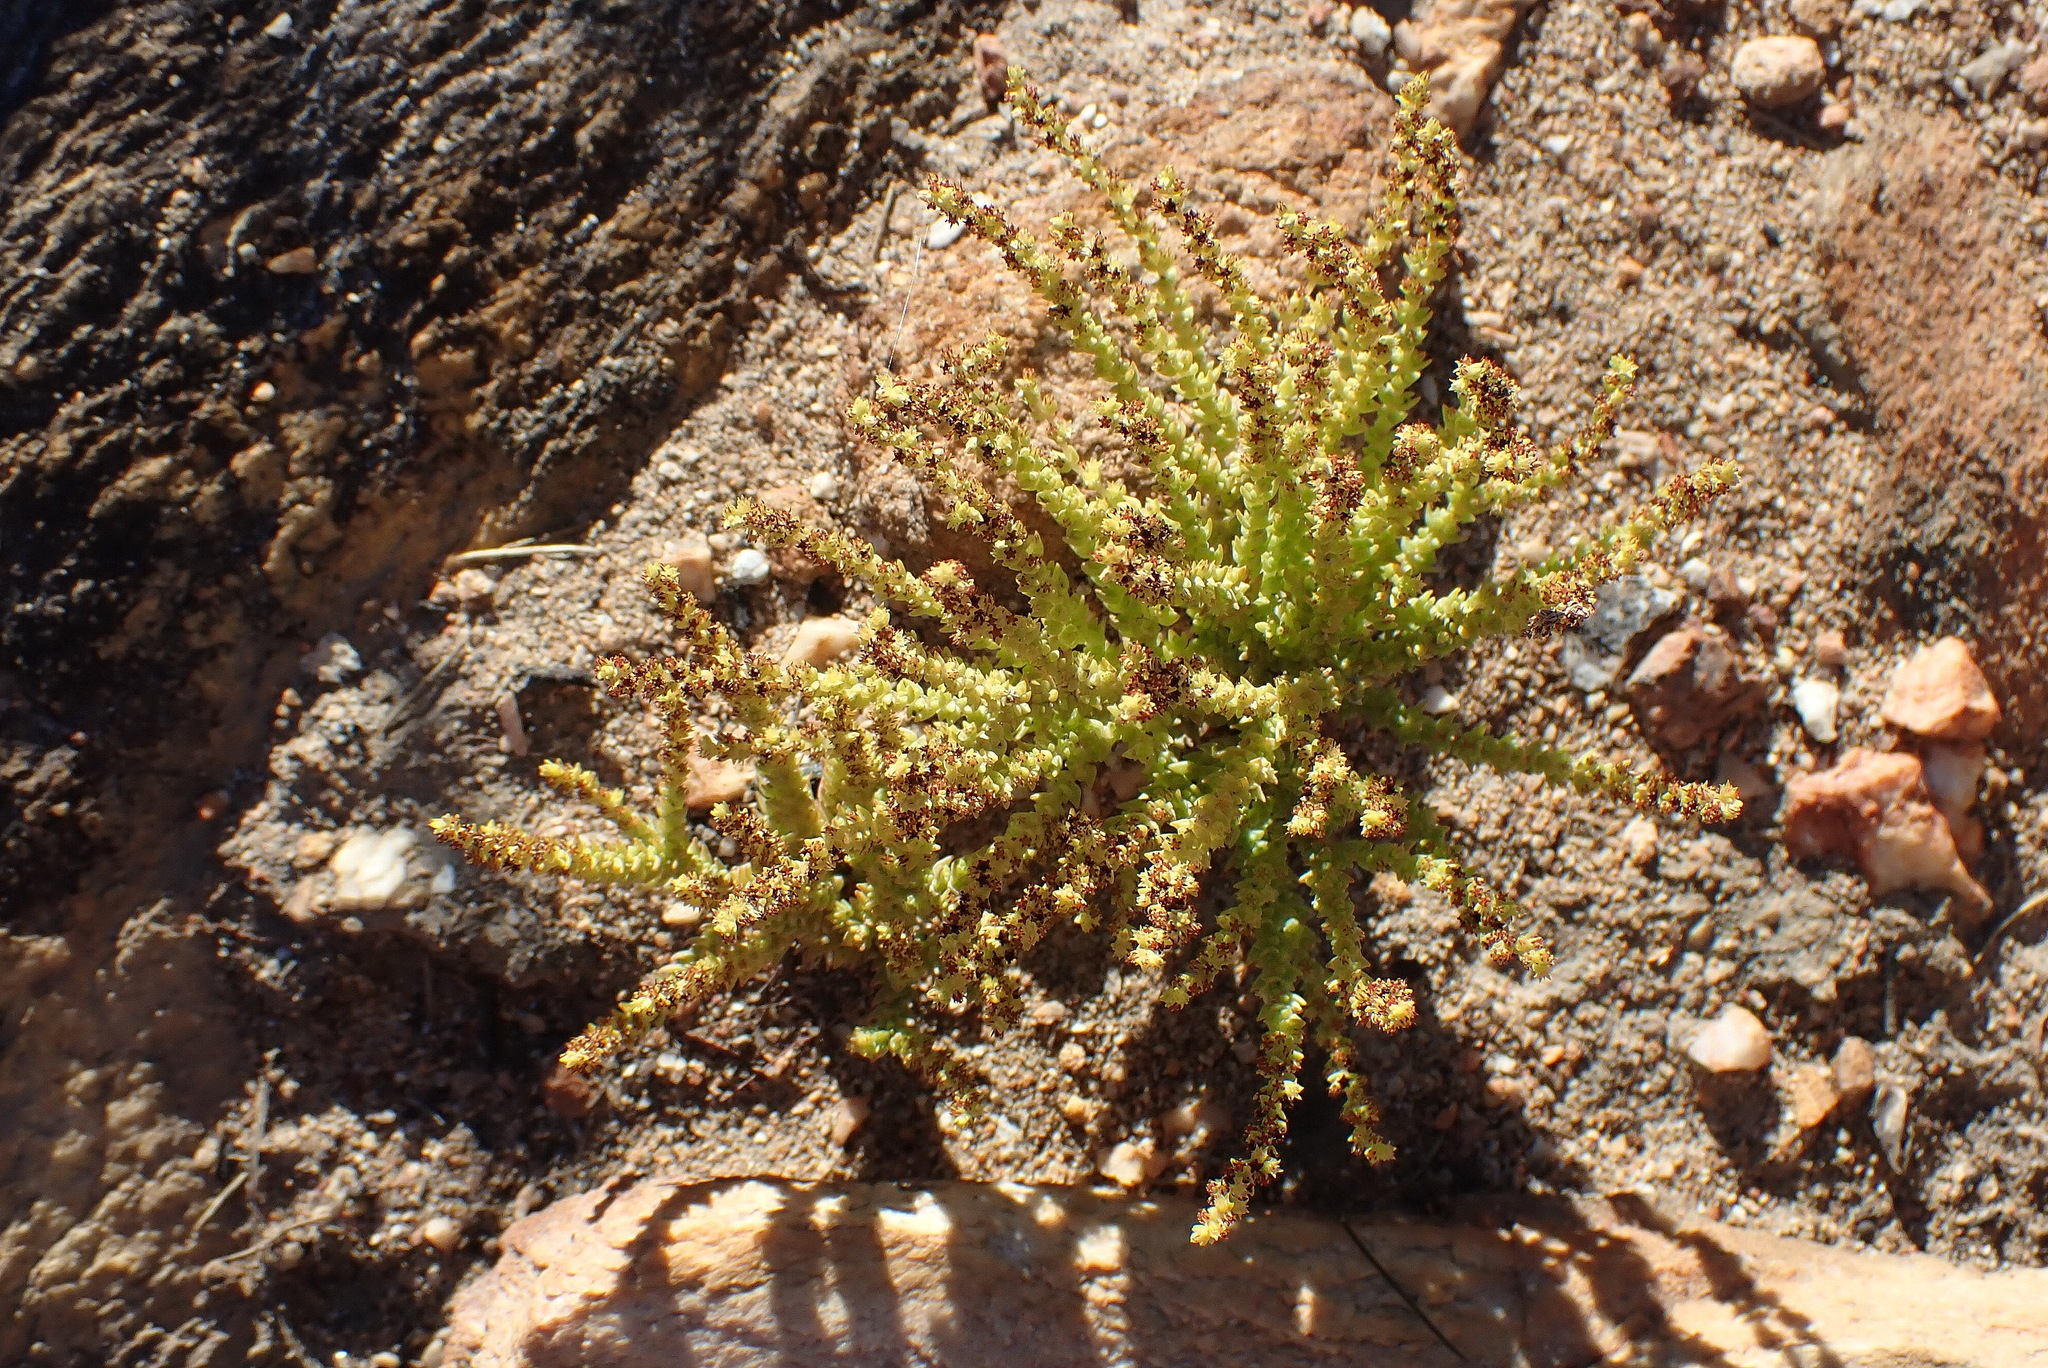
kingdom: Plantae
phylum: Tracheophyta
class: Magnoliopsida
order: Saxifragales
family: Crassulaceae
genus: Crassula
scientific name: Crassula muscosa
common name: Toy-cypress
